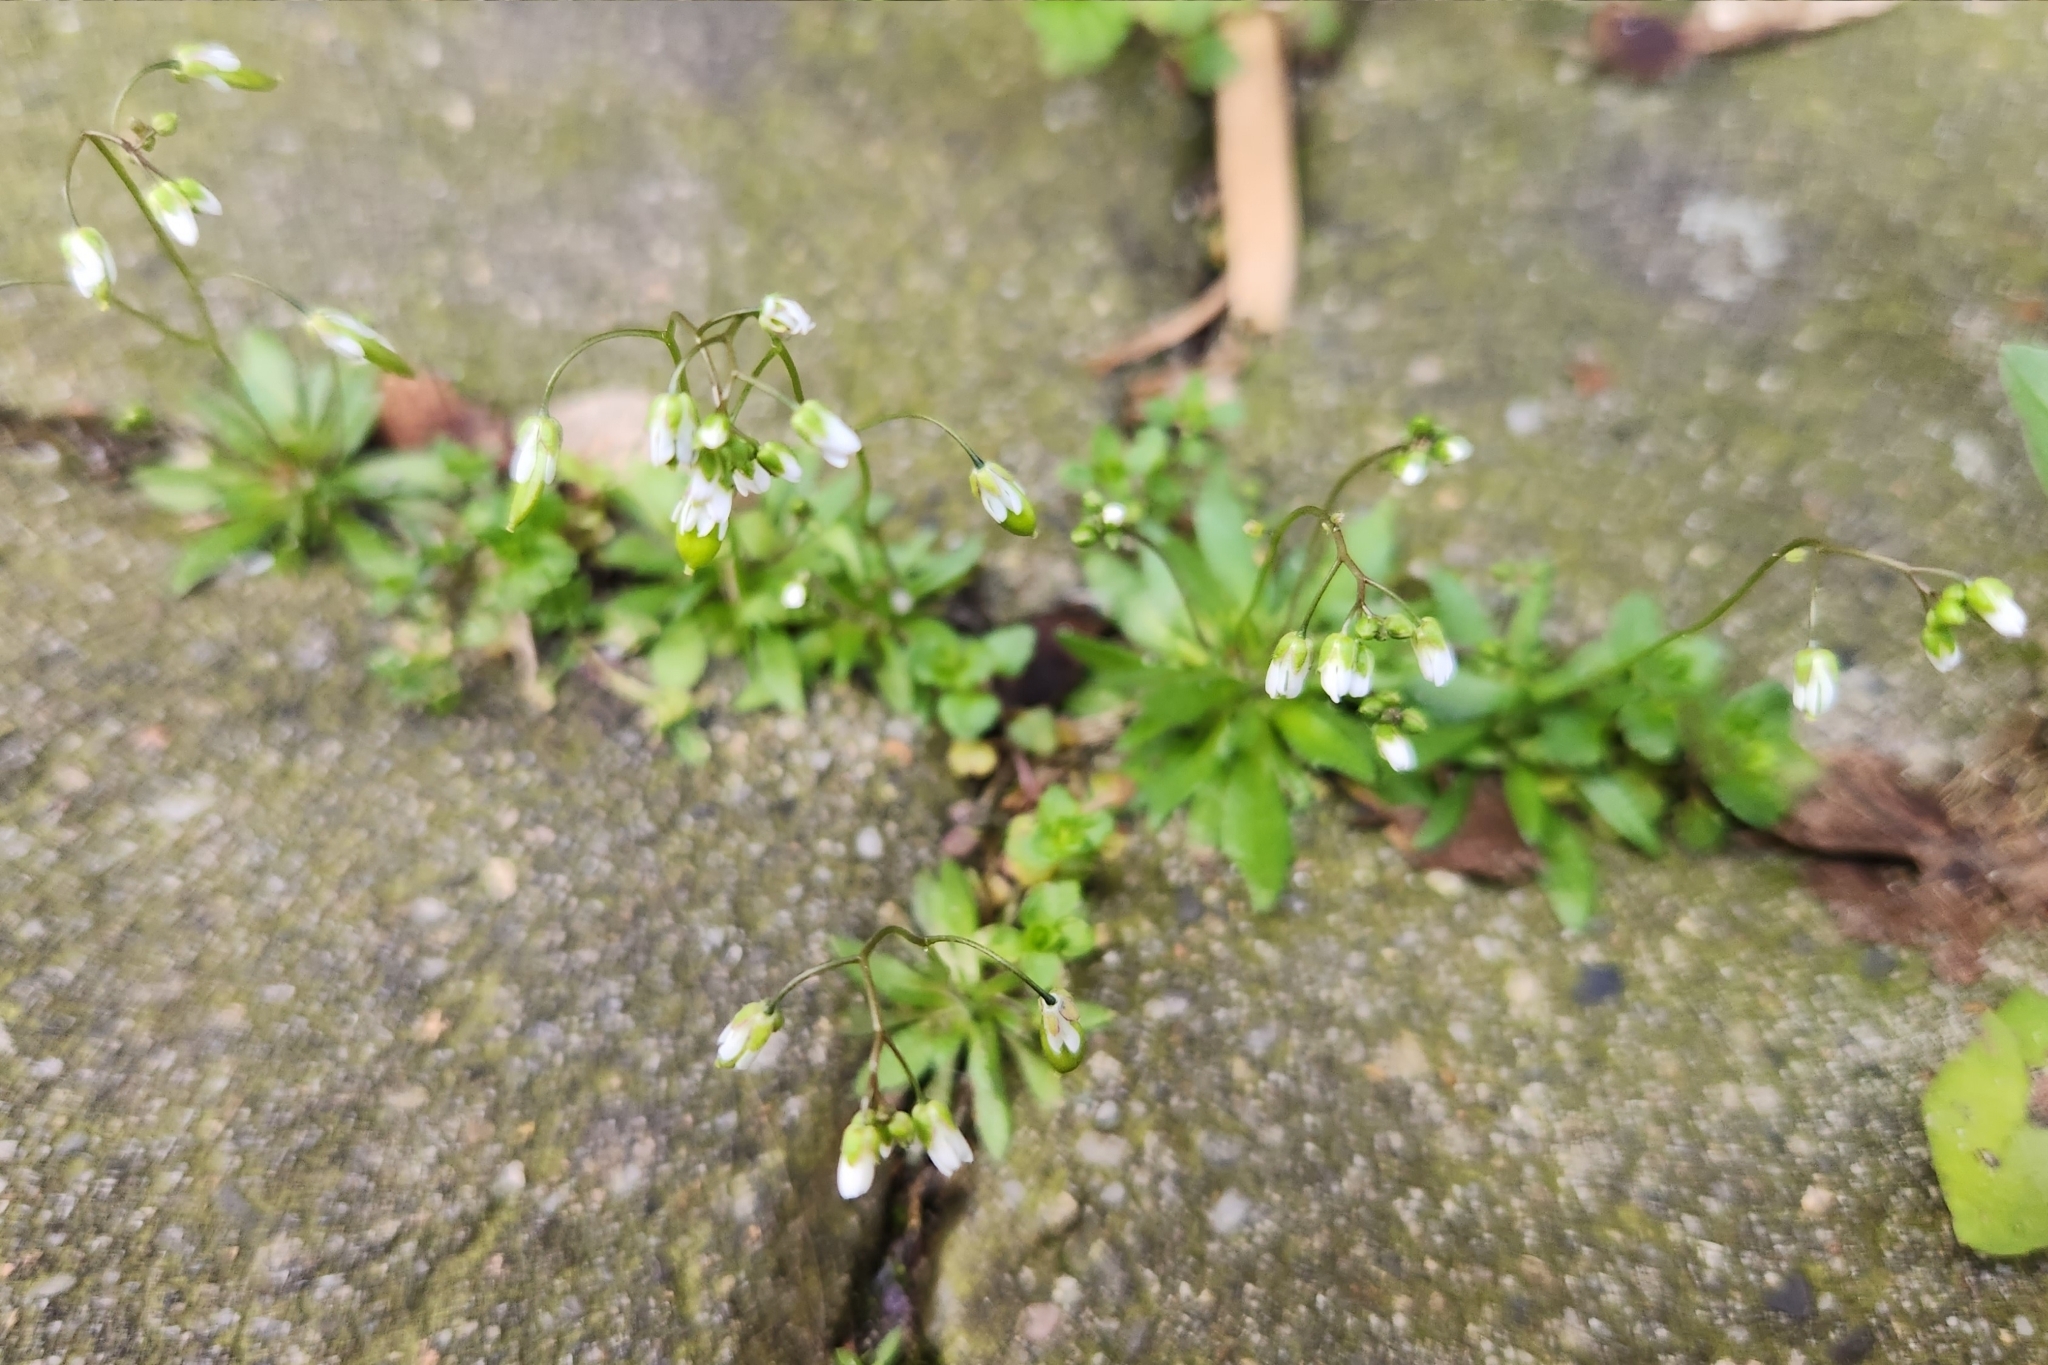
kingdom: Plantae
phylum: Tracheophyta
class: Magnoliopsida
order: Brassicales
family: Brassicaceae
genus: Draba
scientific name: Draba verna
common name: Spring draba
